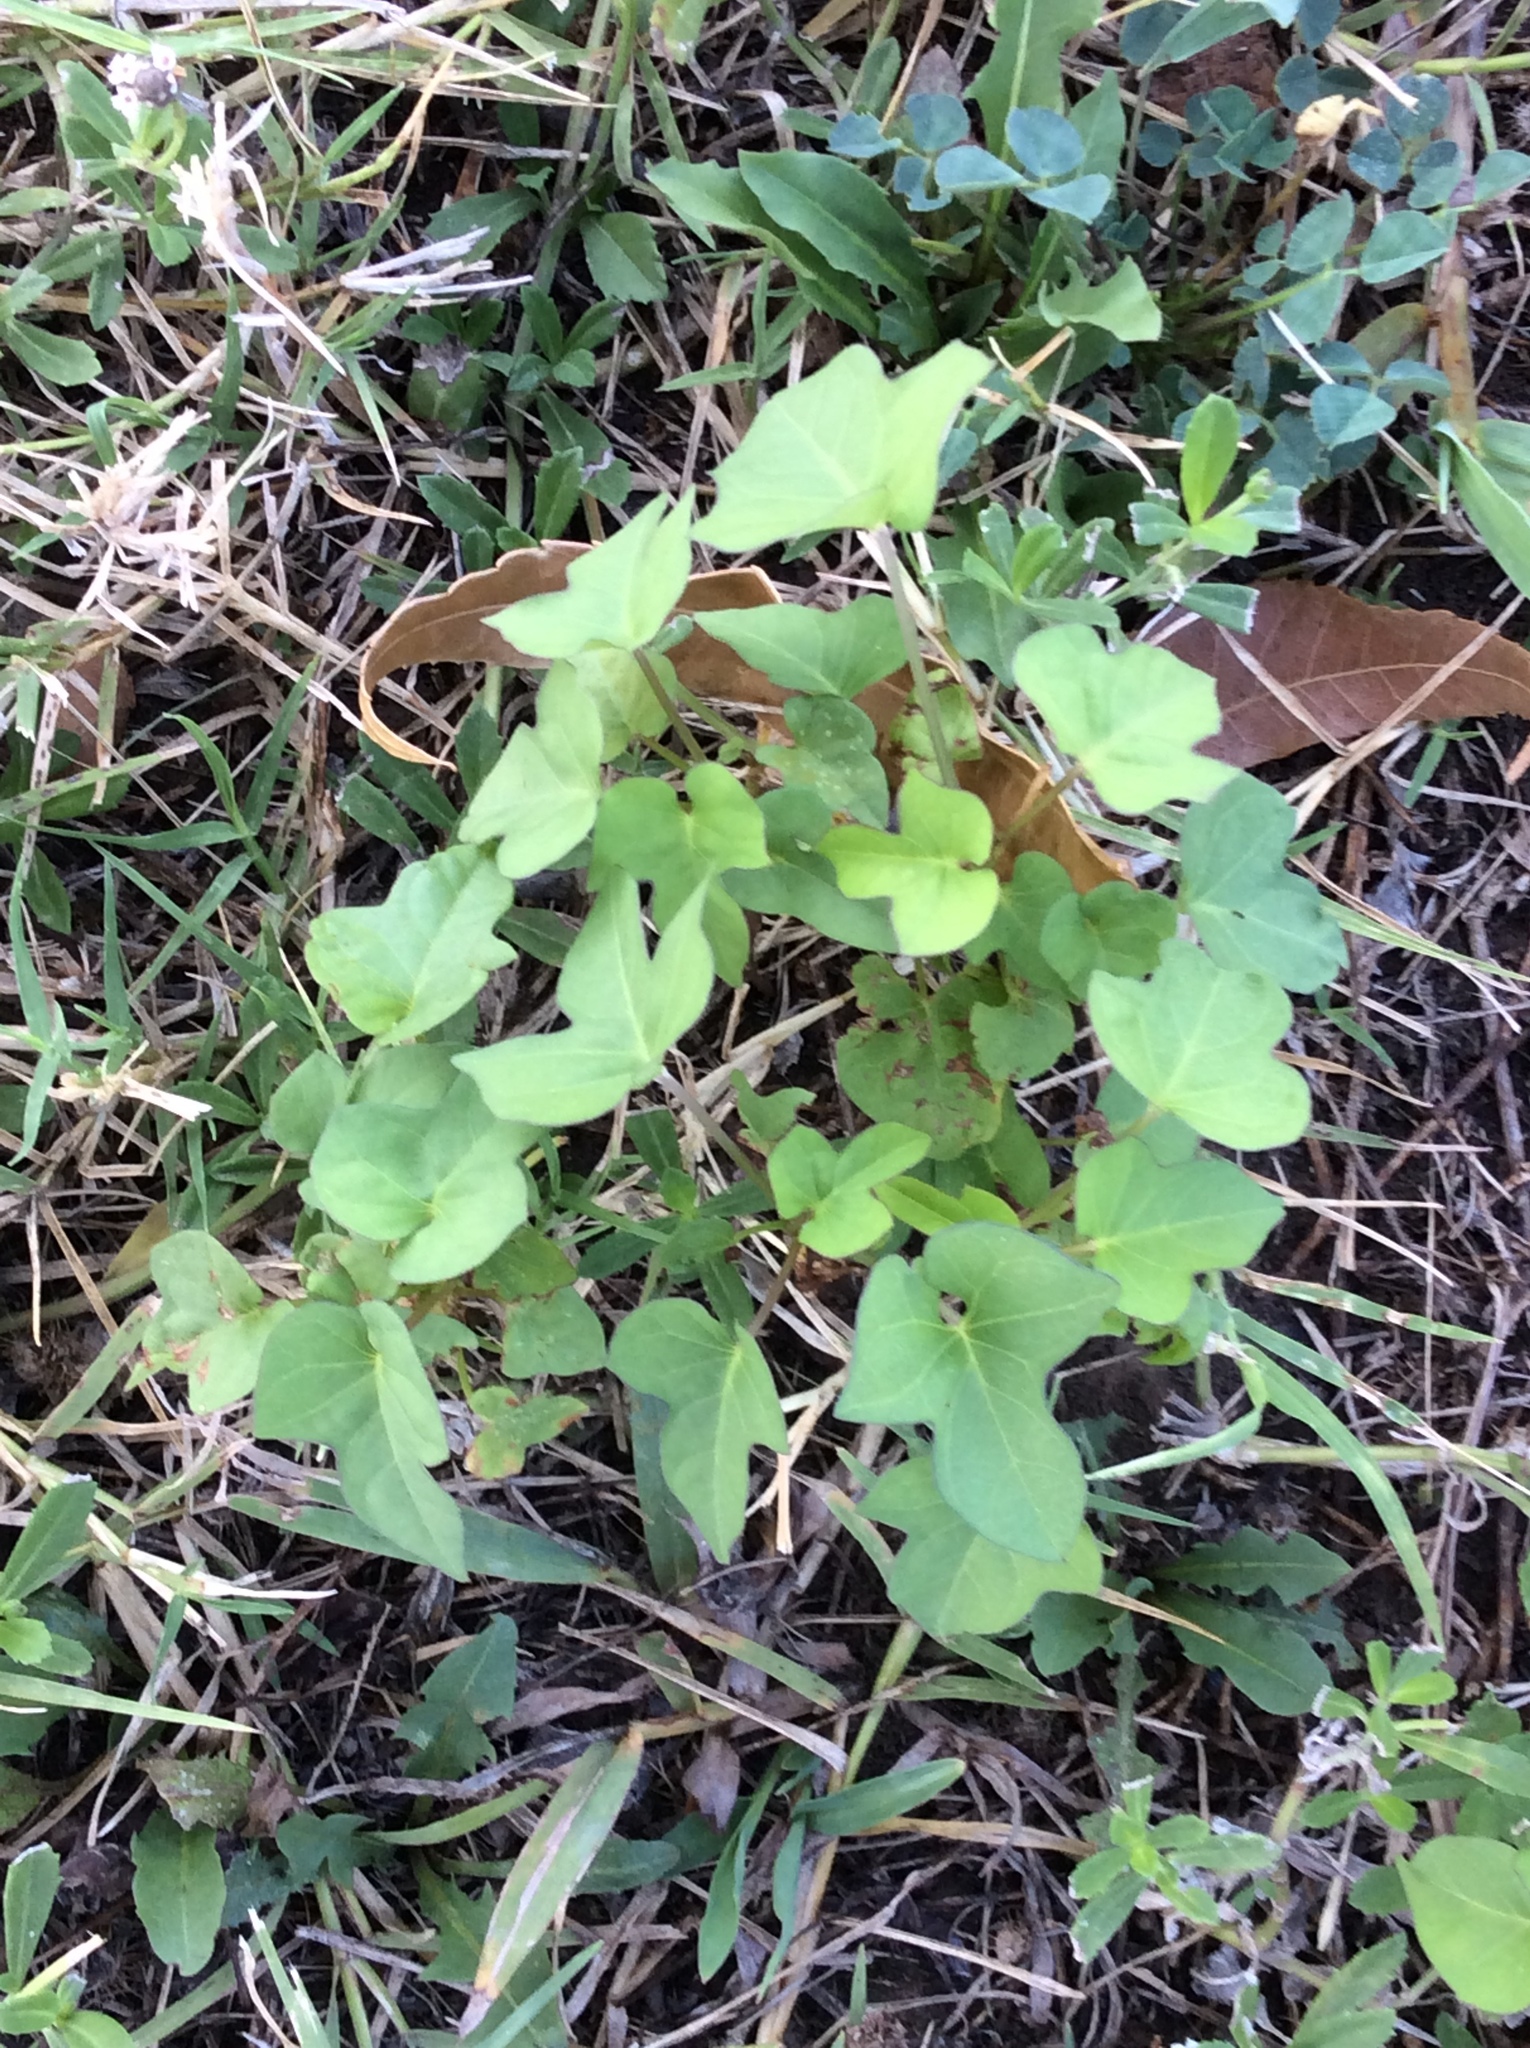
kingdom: Plantae
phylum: Tracheophyta
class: Magnoliopsida
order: Solanales
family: Convolvulaceae
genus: Ipomoea
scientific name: Ipomoea cordatotriloba
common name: Cotton morning glory
